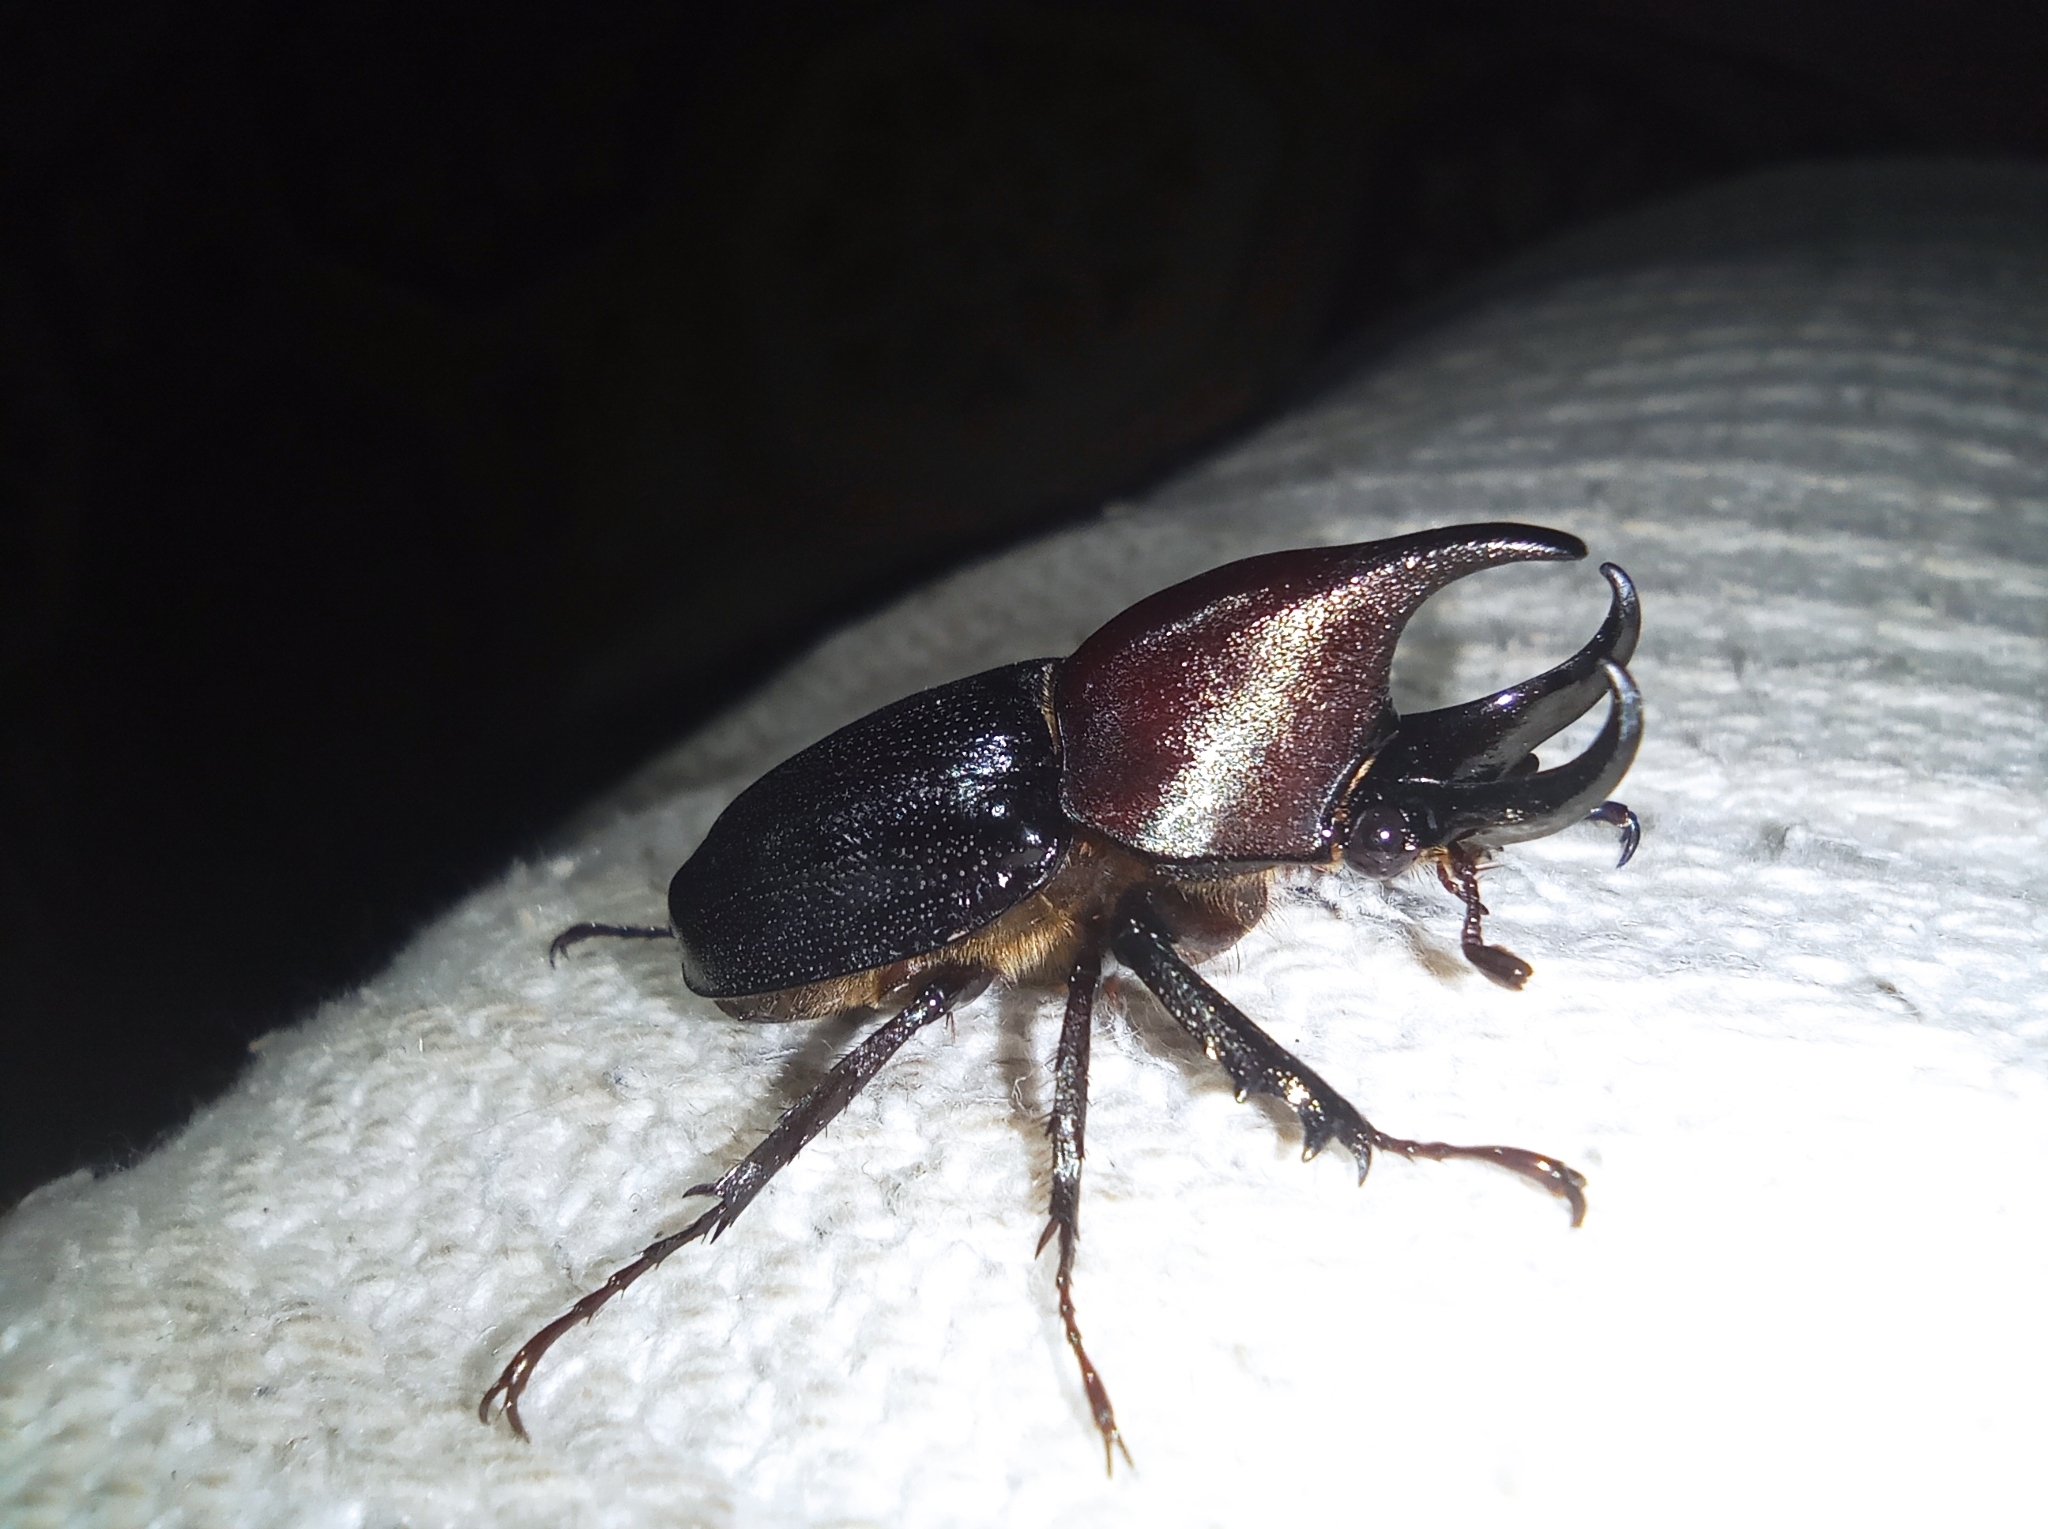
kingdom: Animalia
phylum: Arthropoda
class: Insecta
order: Coleoptera
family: Scarabaeidae
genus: Aegopsis
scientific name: Aegopsis curvicornis
